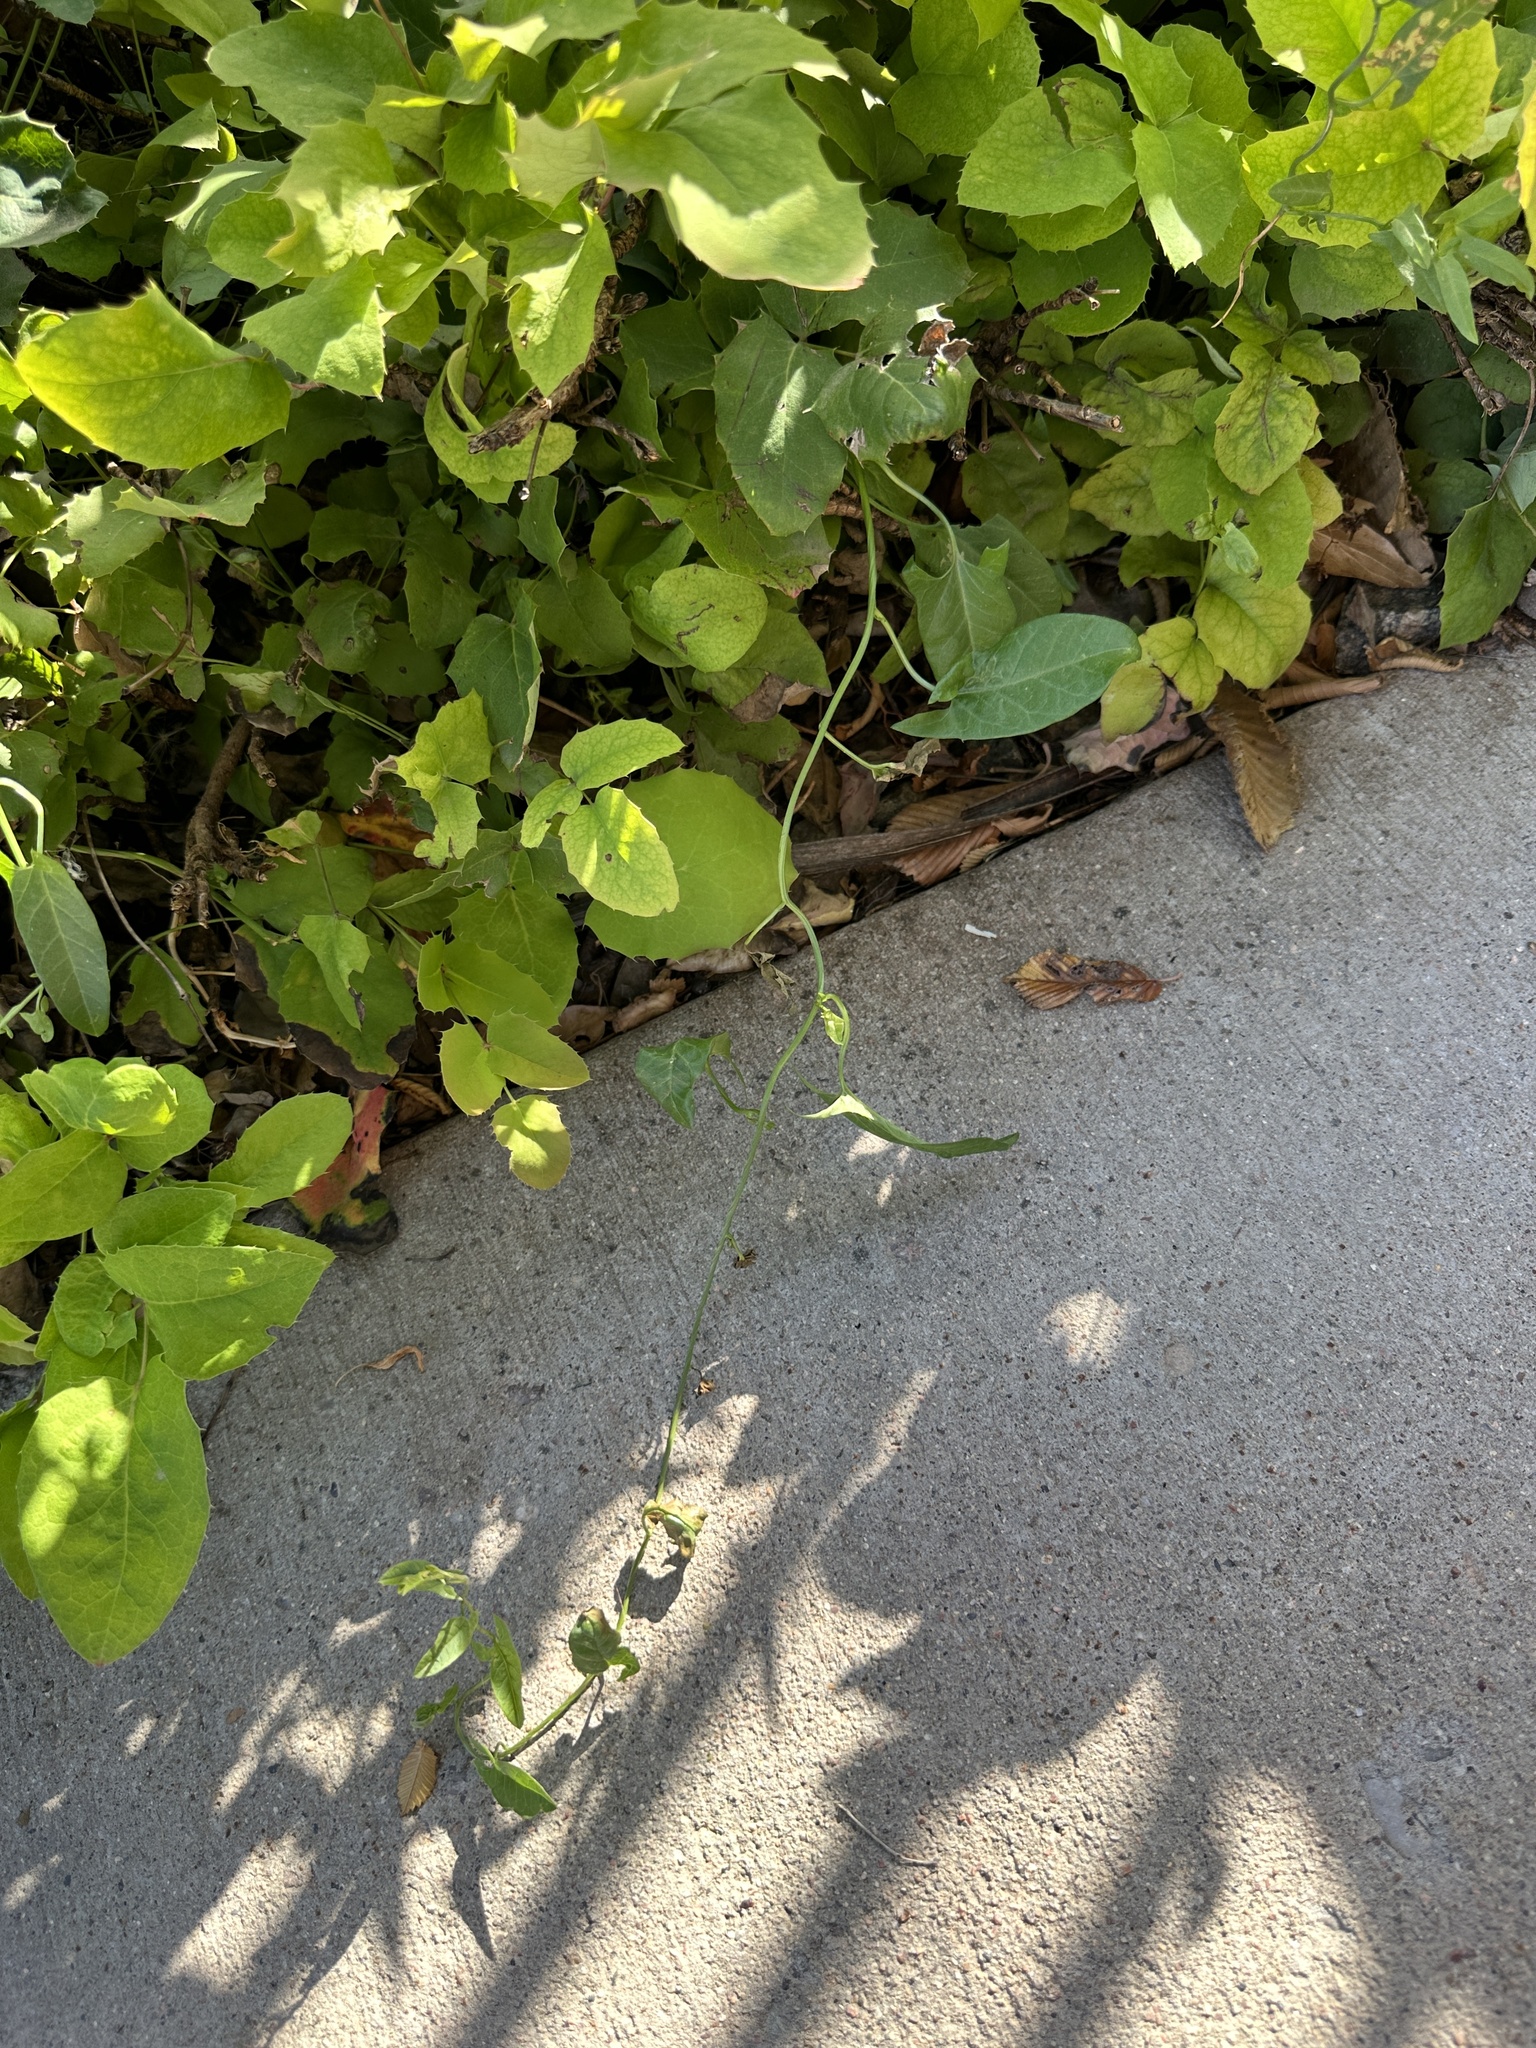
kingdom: Plantae
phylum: Tracheophyta
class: Magnoliopsida
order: Solanales
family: Convolvulaceae
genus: Convolvulus
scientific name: Convolvulus arvensis
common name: Field bindweed
